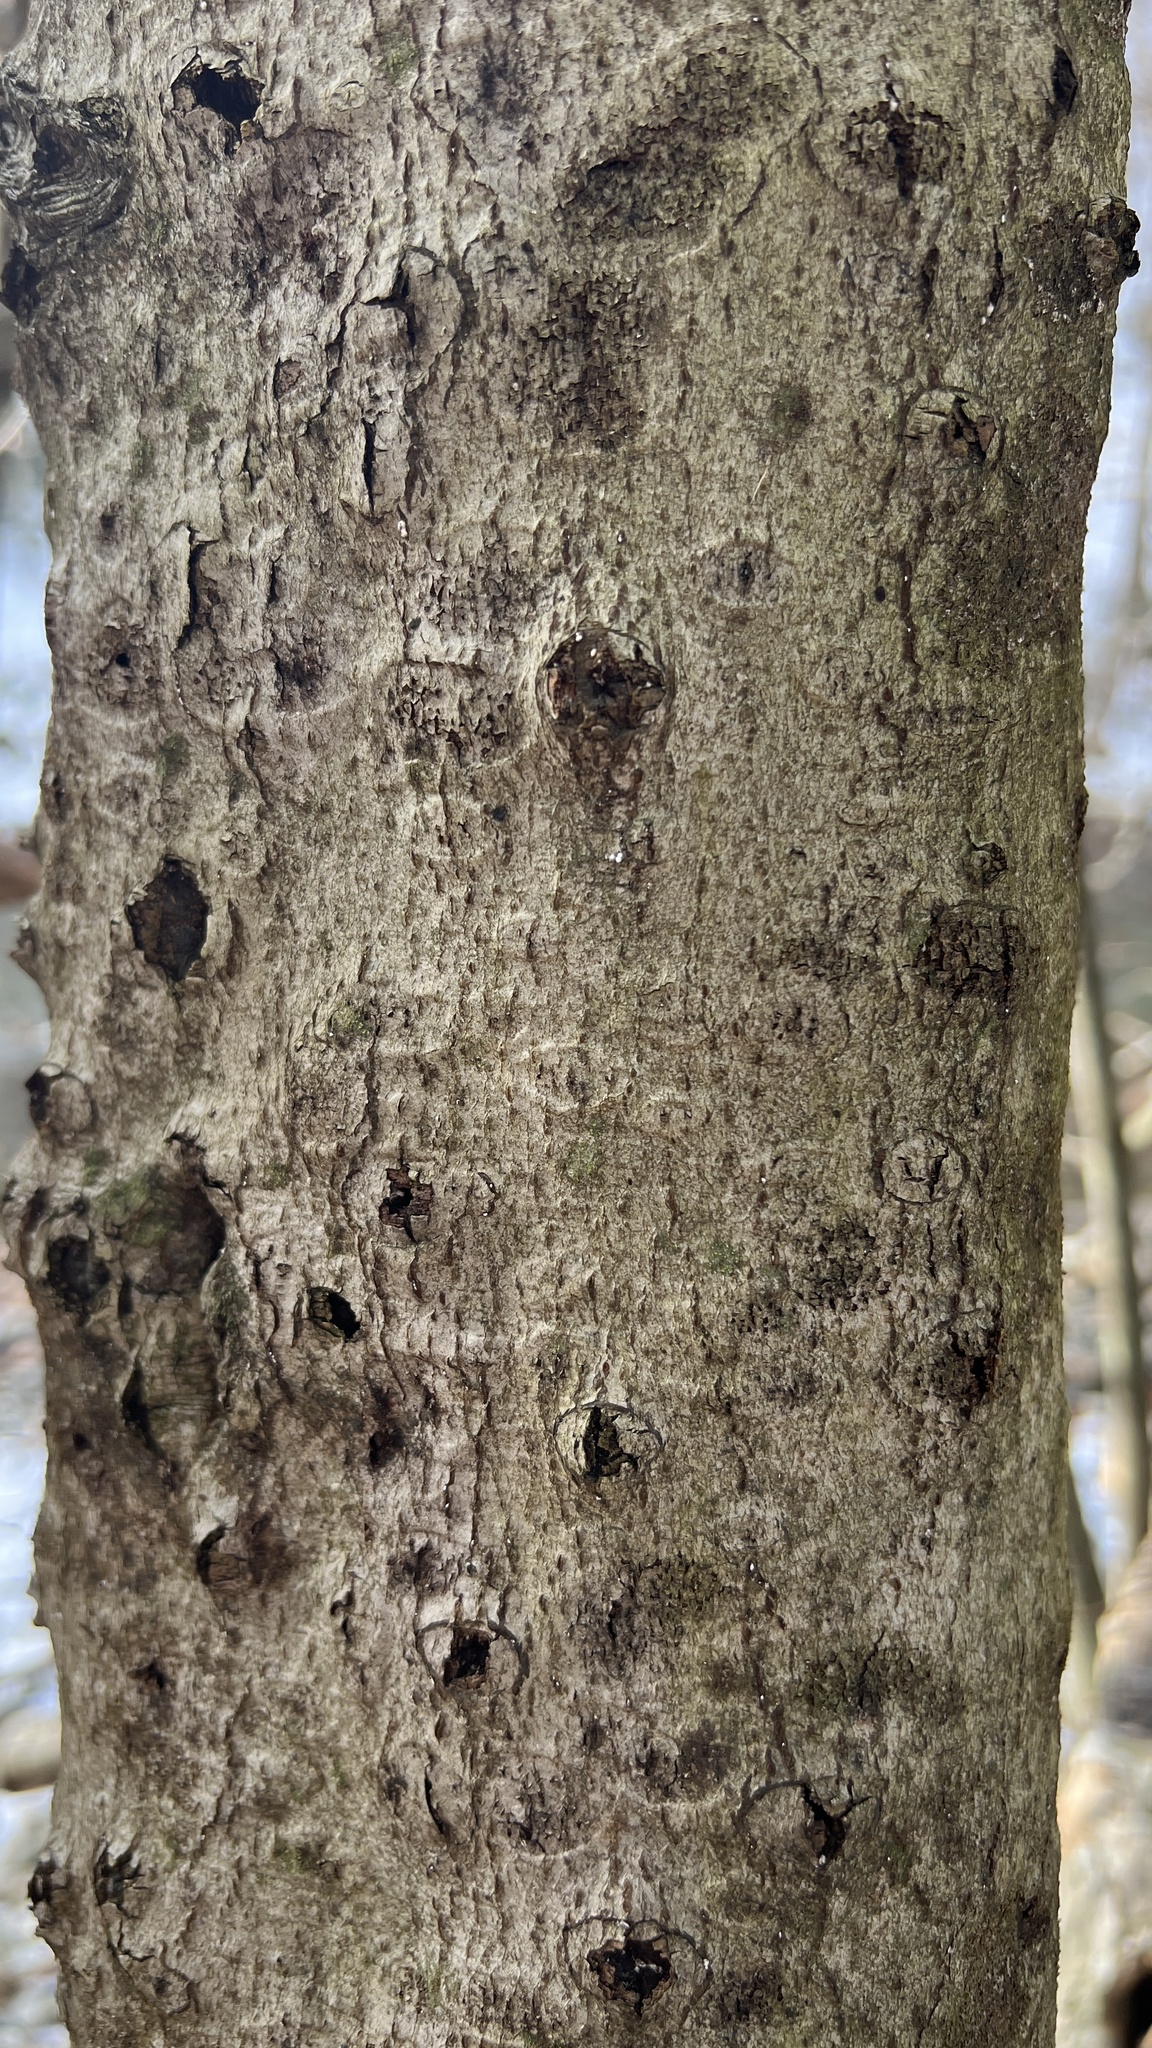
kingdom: Fungi
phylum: Ascomycota
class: Sordariomycetes
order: Hypocreales
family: Nectriaceae
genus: Neonectria
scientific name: Neonectria faginata
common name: Beech bark canker
